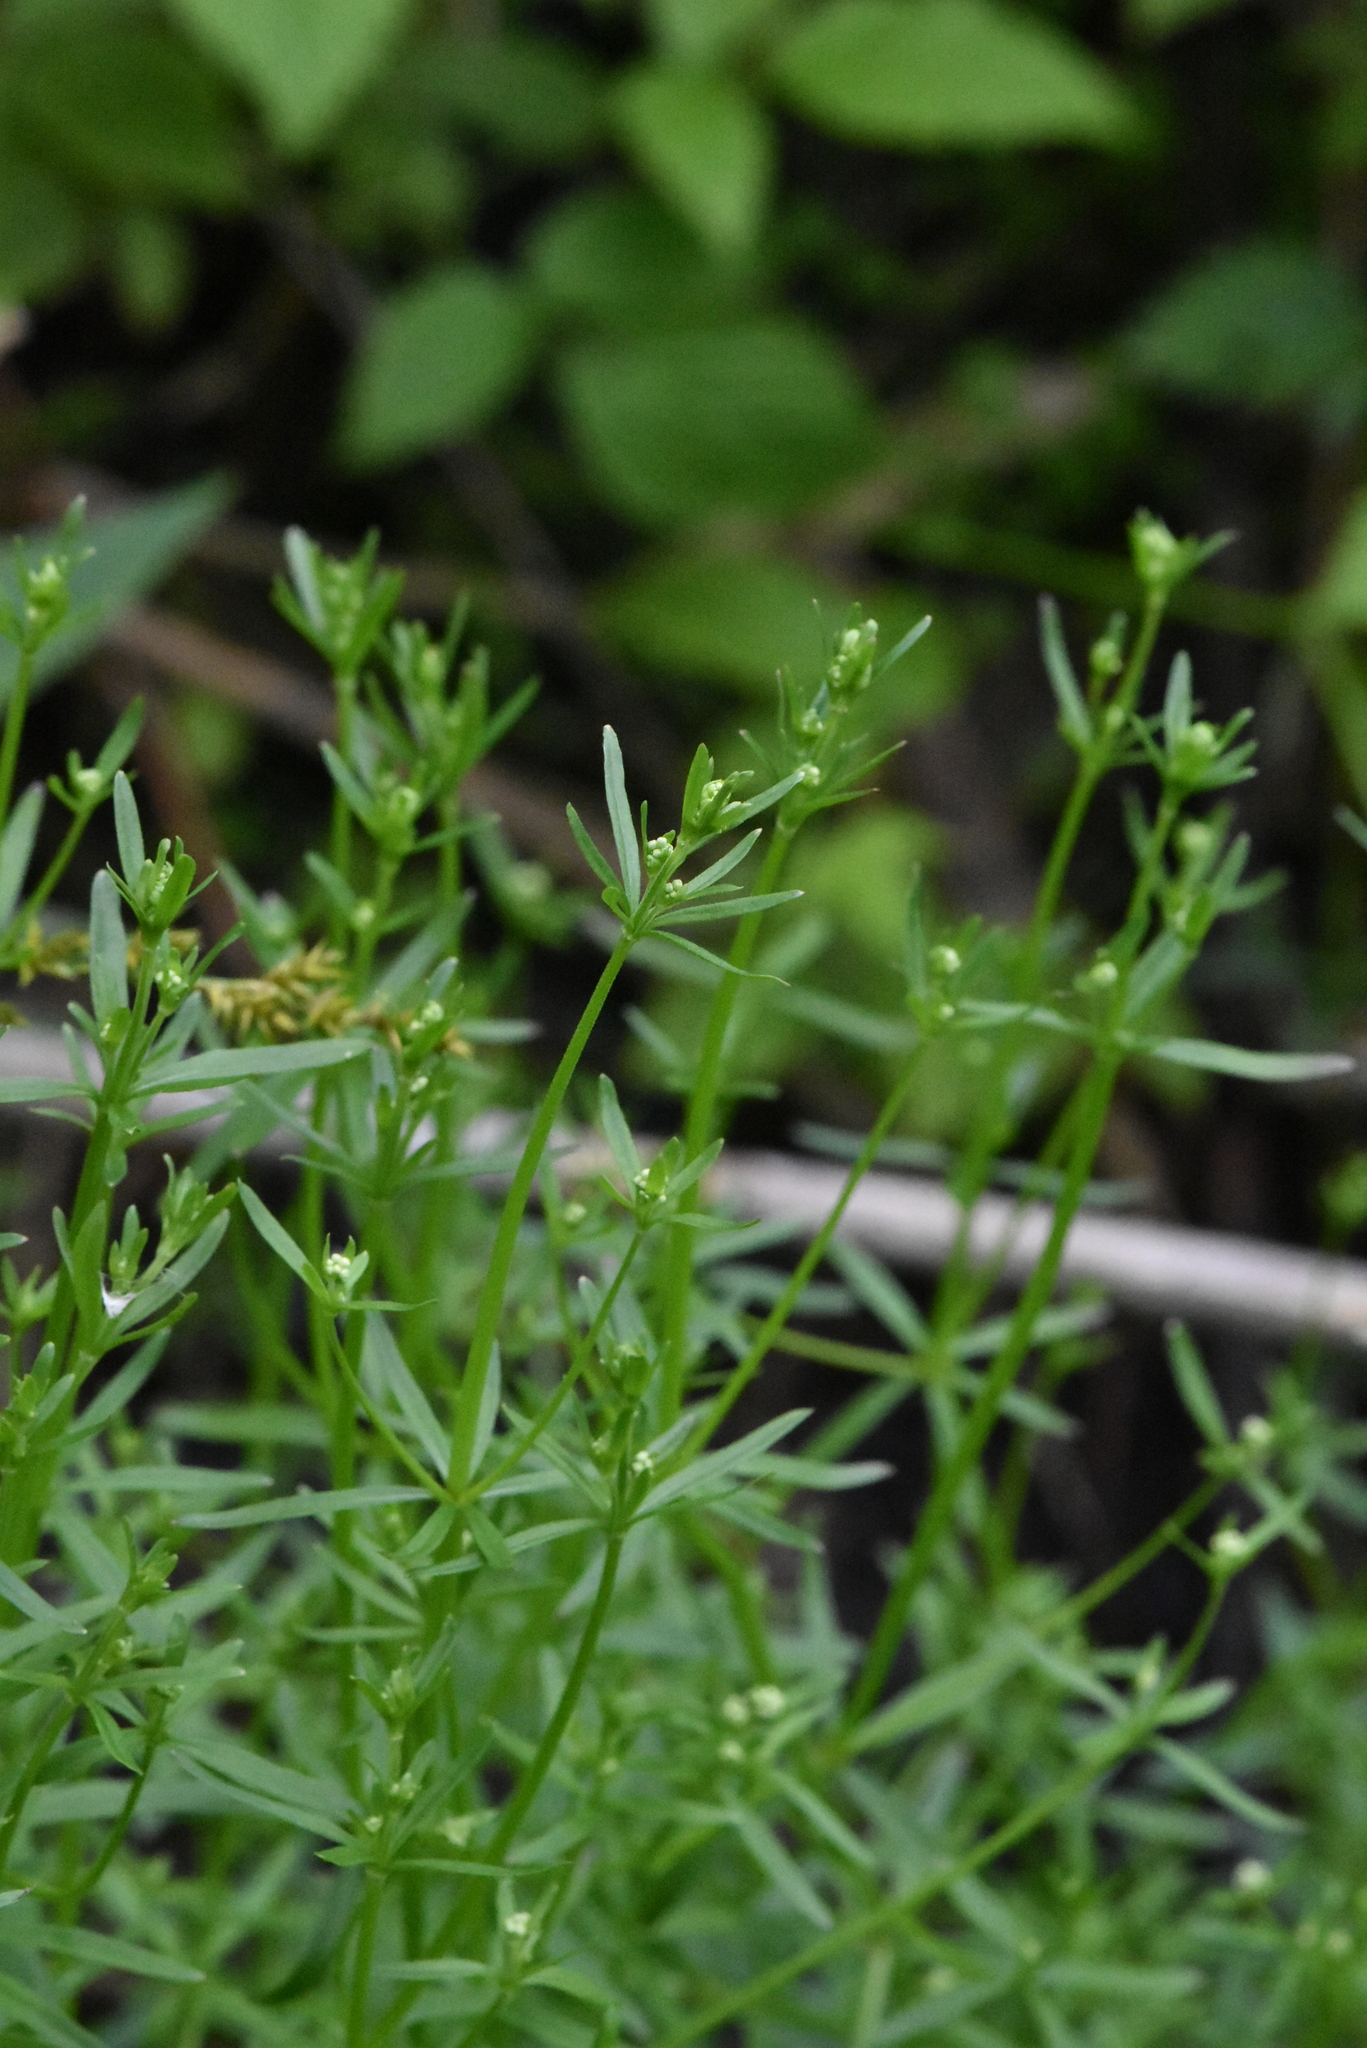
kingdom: Plantae
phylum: Tracheophyta
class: Magnoliopsida
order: Gentianales
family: Rubiaceae
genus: Galium
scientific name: Galium palustre
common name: Common marsh-bedstraw
